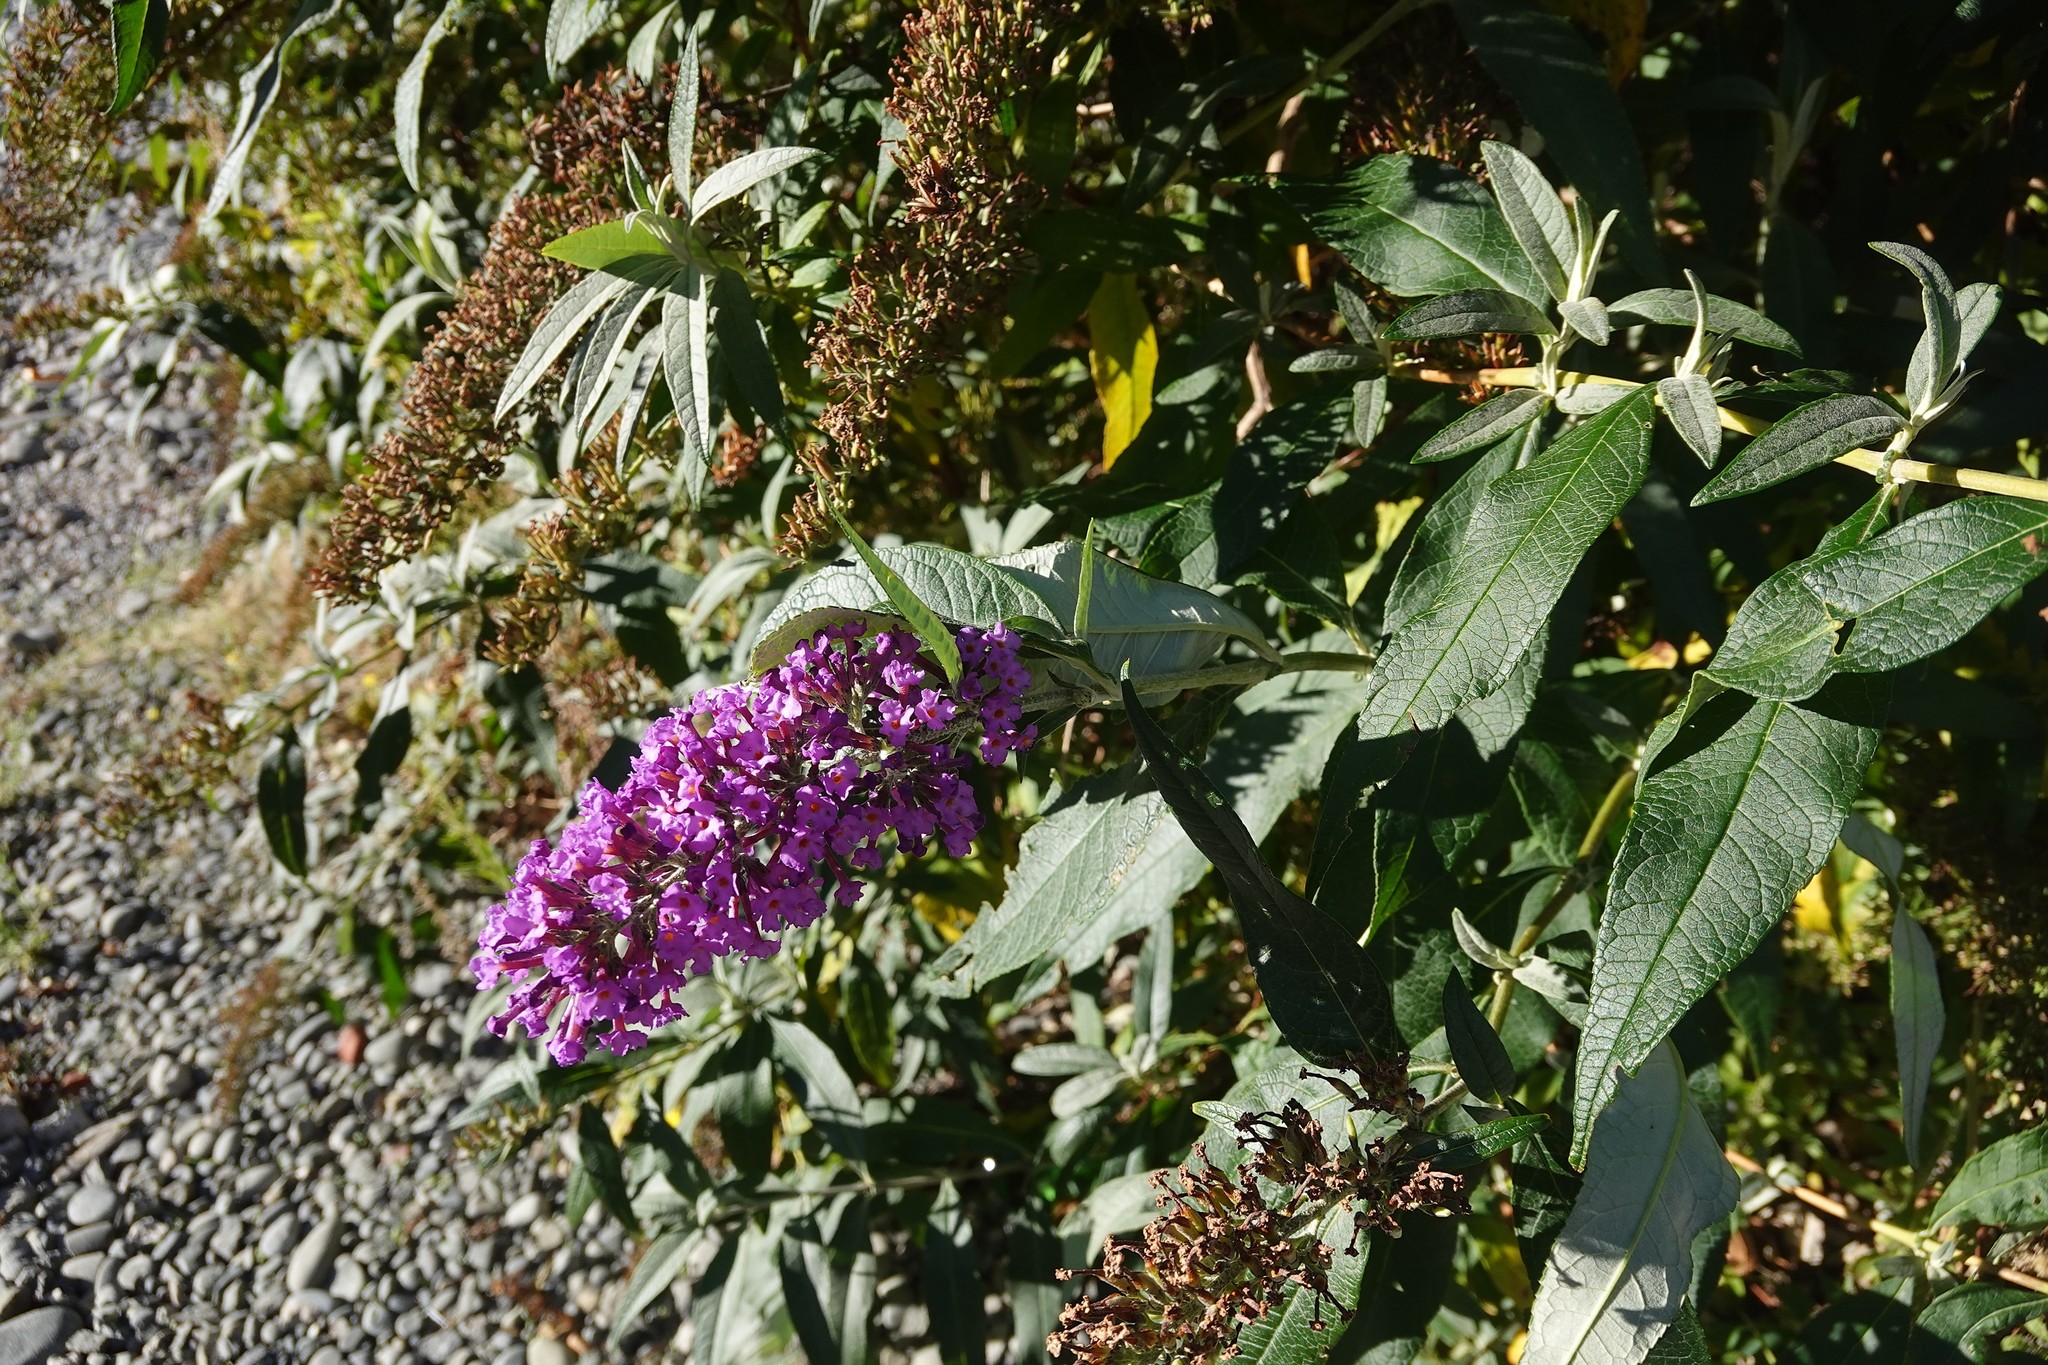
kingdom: Plantae
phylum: Tracheophyta
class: Magnoliopsida
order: Lamiales
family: Scrophulariaceae
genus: Buddleja
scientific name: Buddleja davidii
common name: Butterfly-bush
